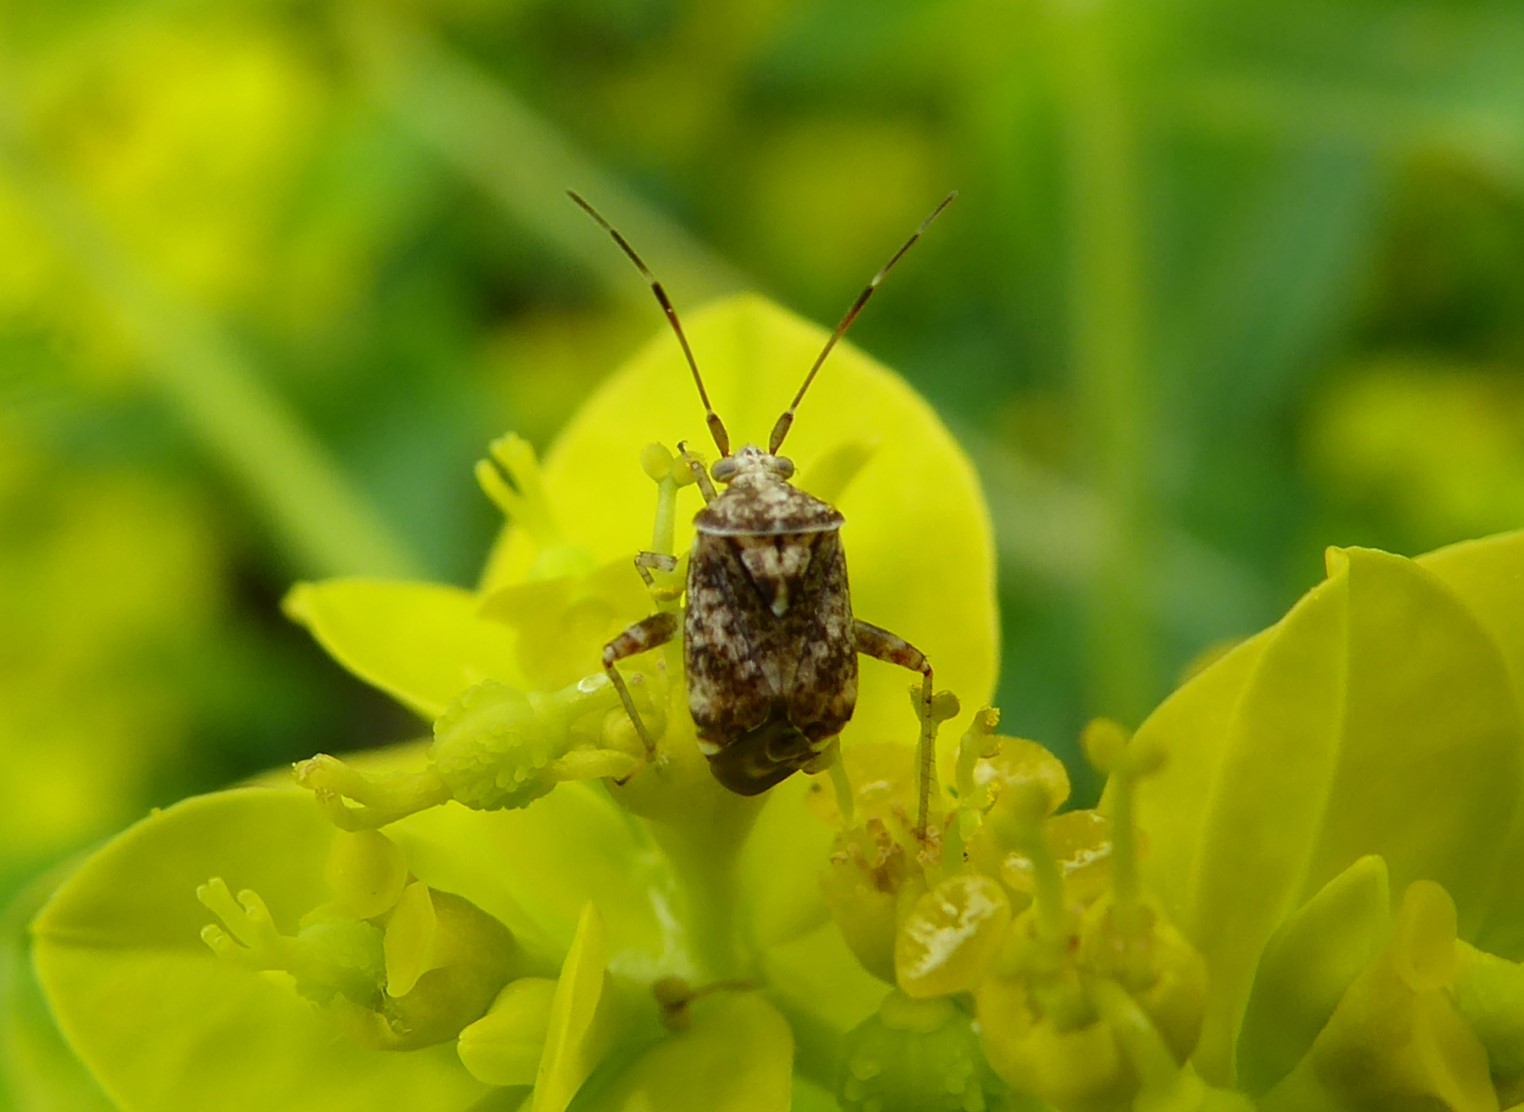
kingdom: Animalia
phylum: Arthropoda
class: Insecta
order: Hemiptera
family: Miridae
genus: Sidnia
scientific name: Sidnia kinbergi
